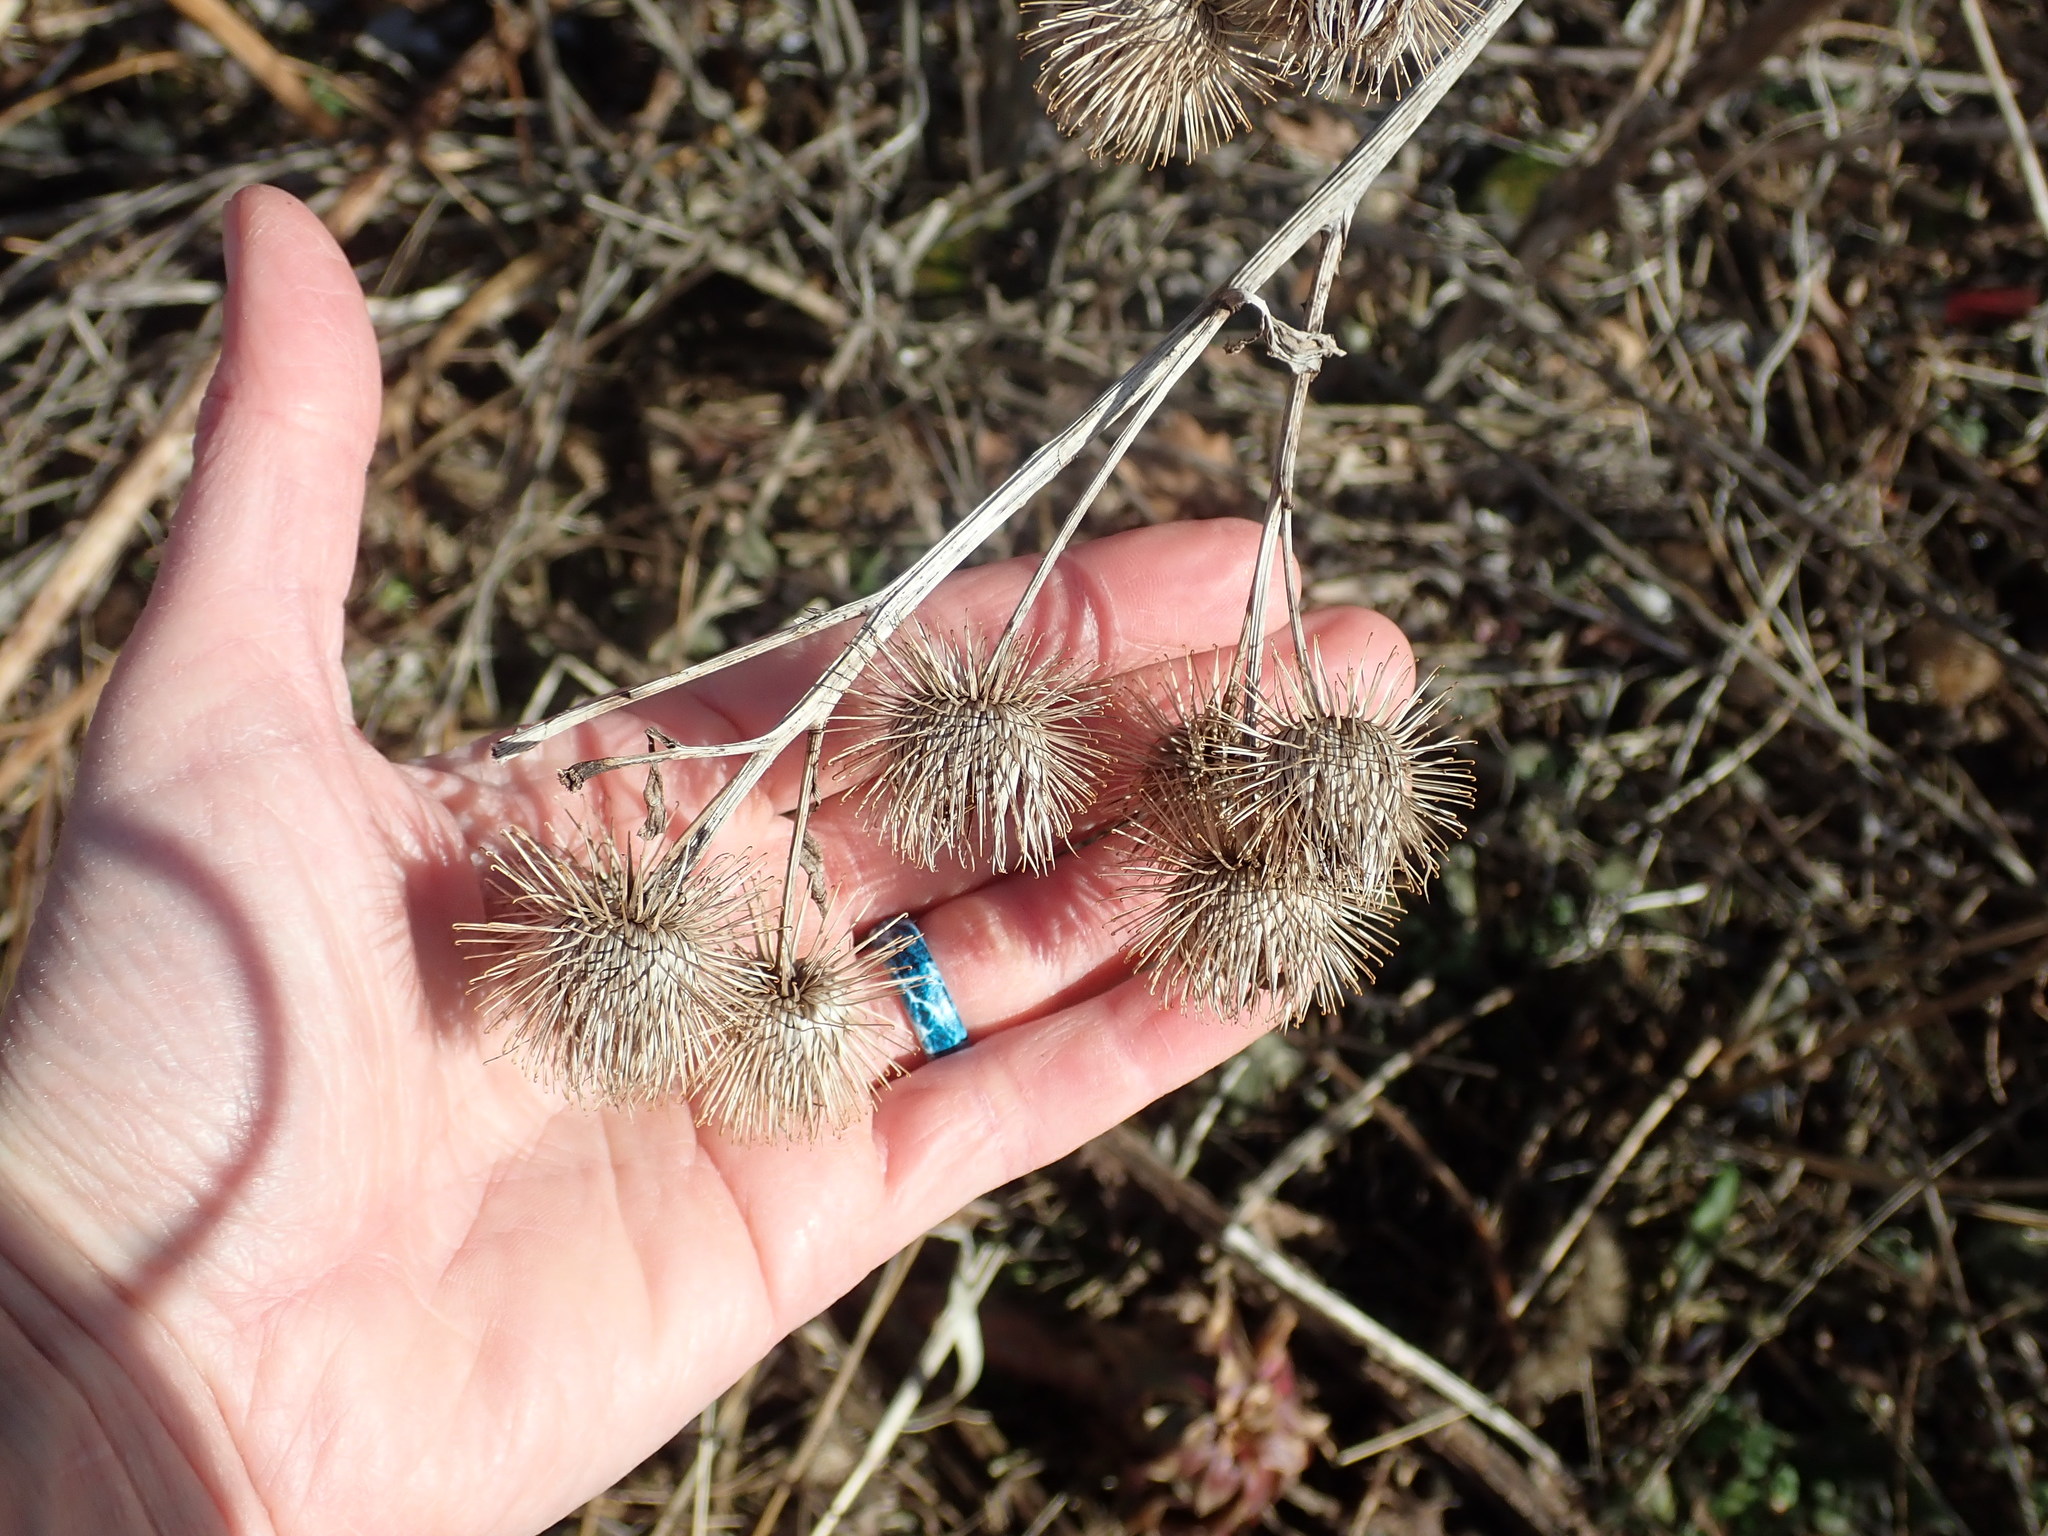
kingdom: Plantae
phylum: Tracheophyta
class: Magnoliopsida
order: Asterales
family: Asteraceae
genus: Arctium
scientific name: Arctium lappa
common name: Greater burdock
